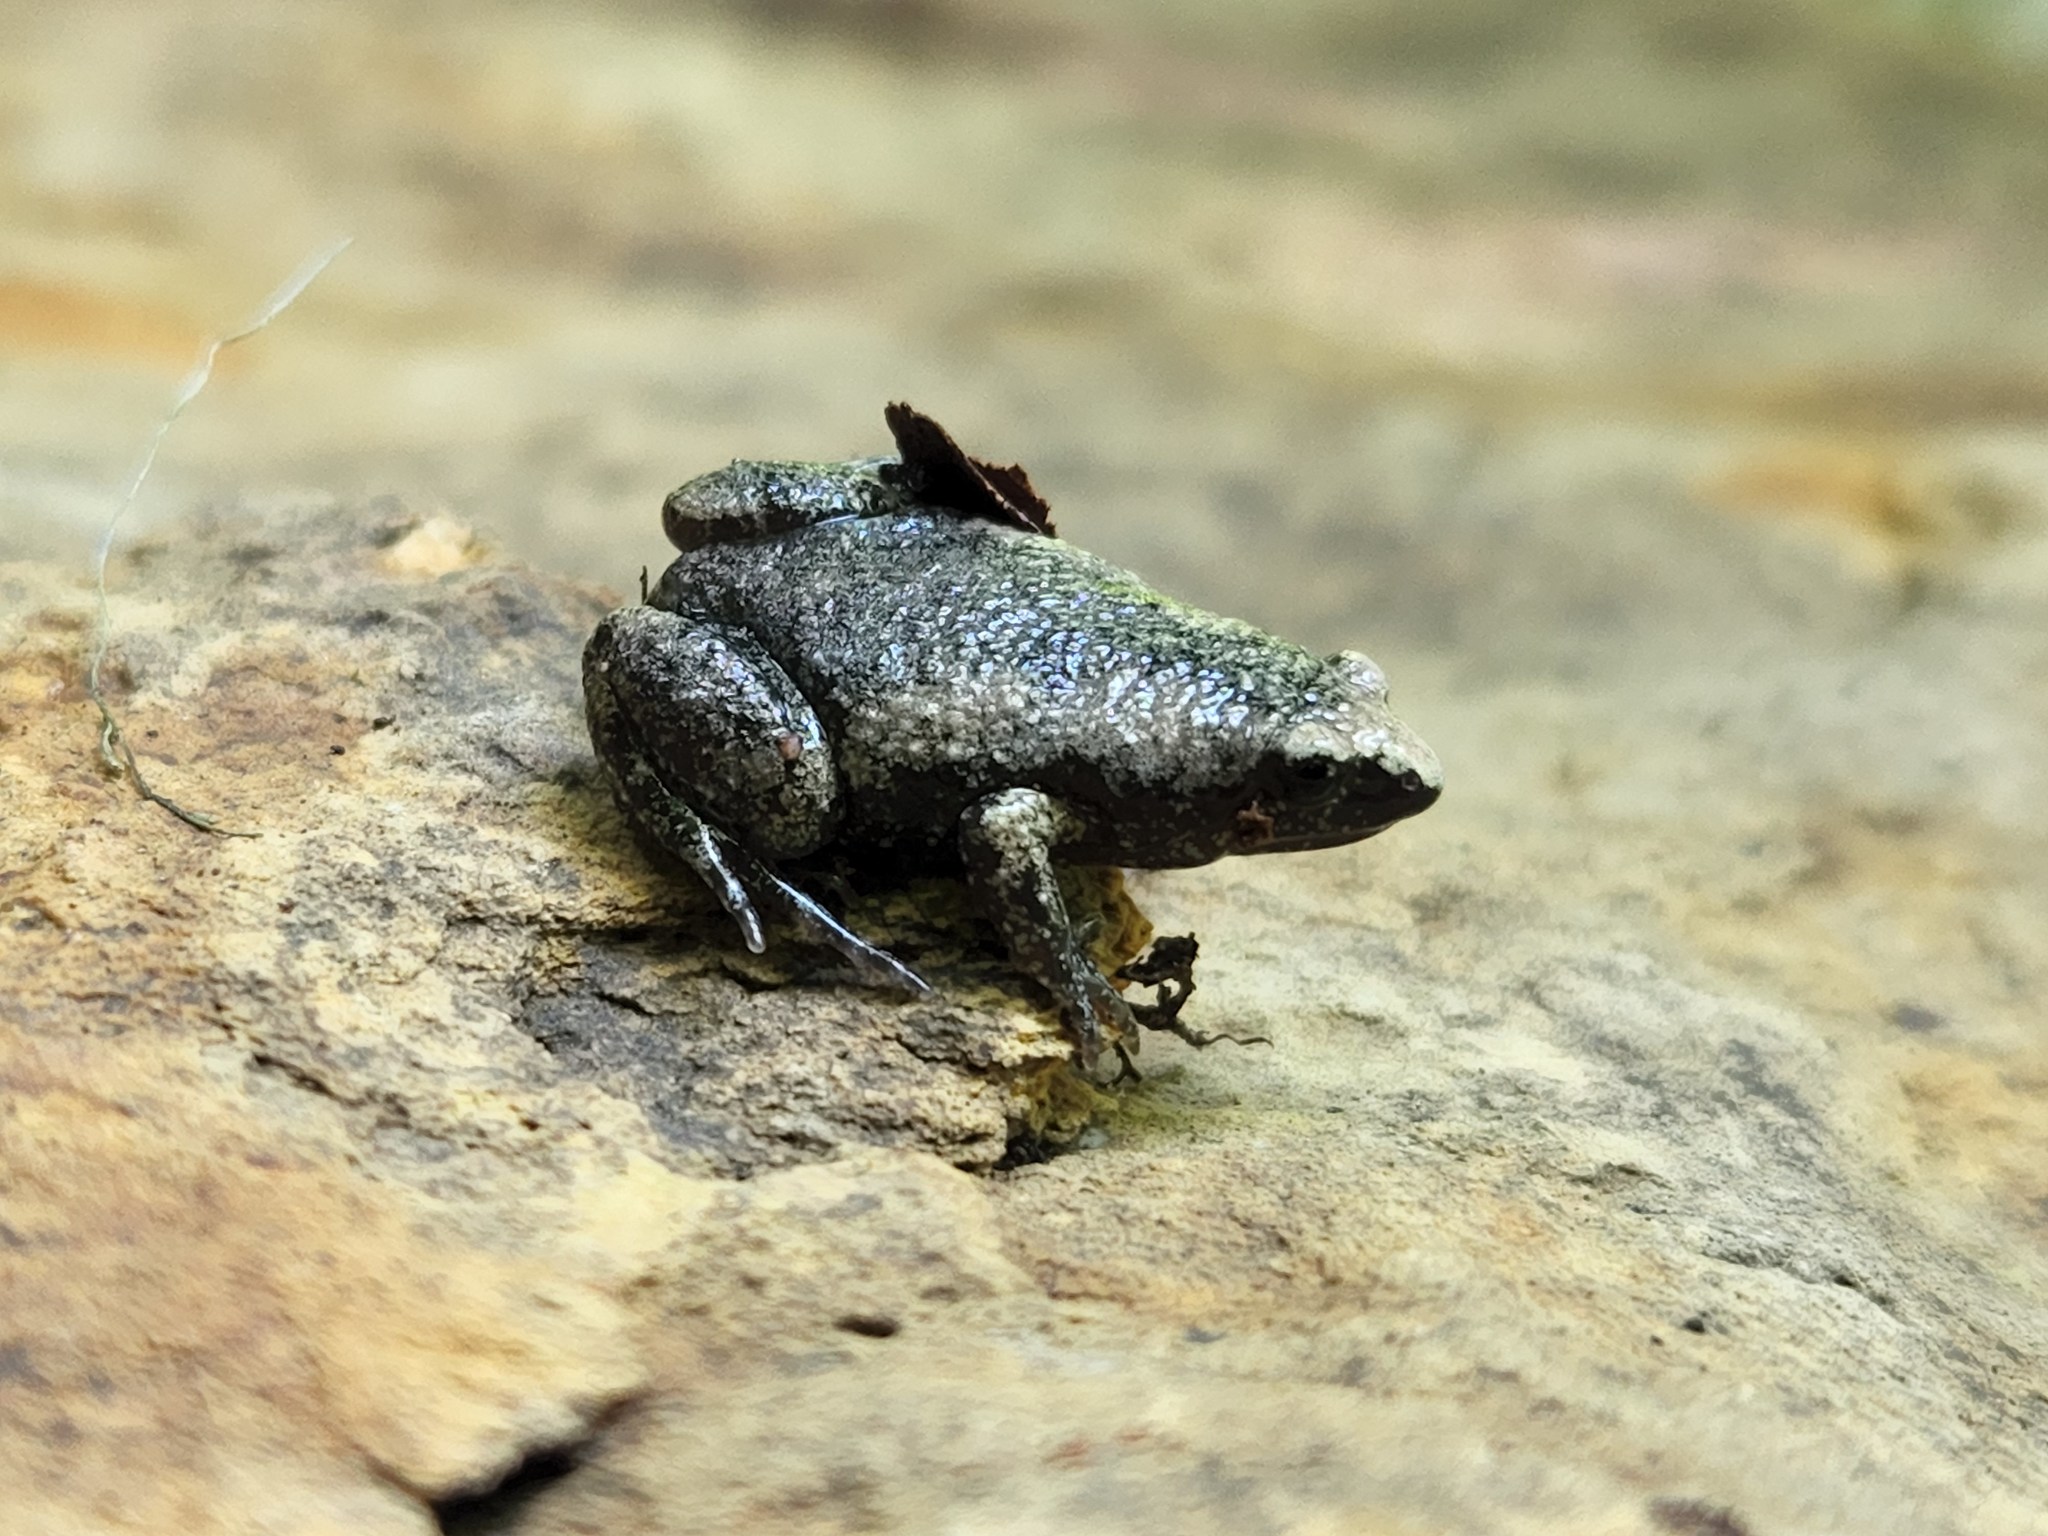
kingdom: Animalia
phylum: Chordata
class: Amphibia
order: Anura
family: Microhylidae
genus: Gastrophryne
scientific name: Gastrophryne carolinensis
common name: Eastern narrowmouth toad
